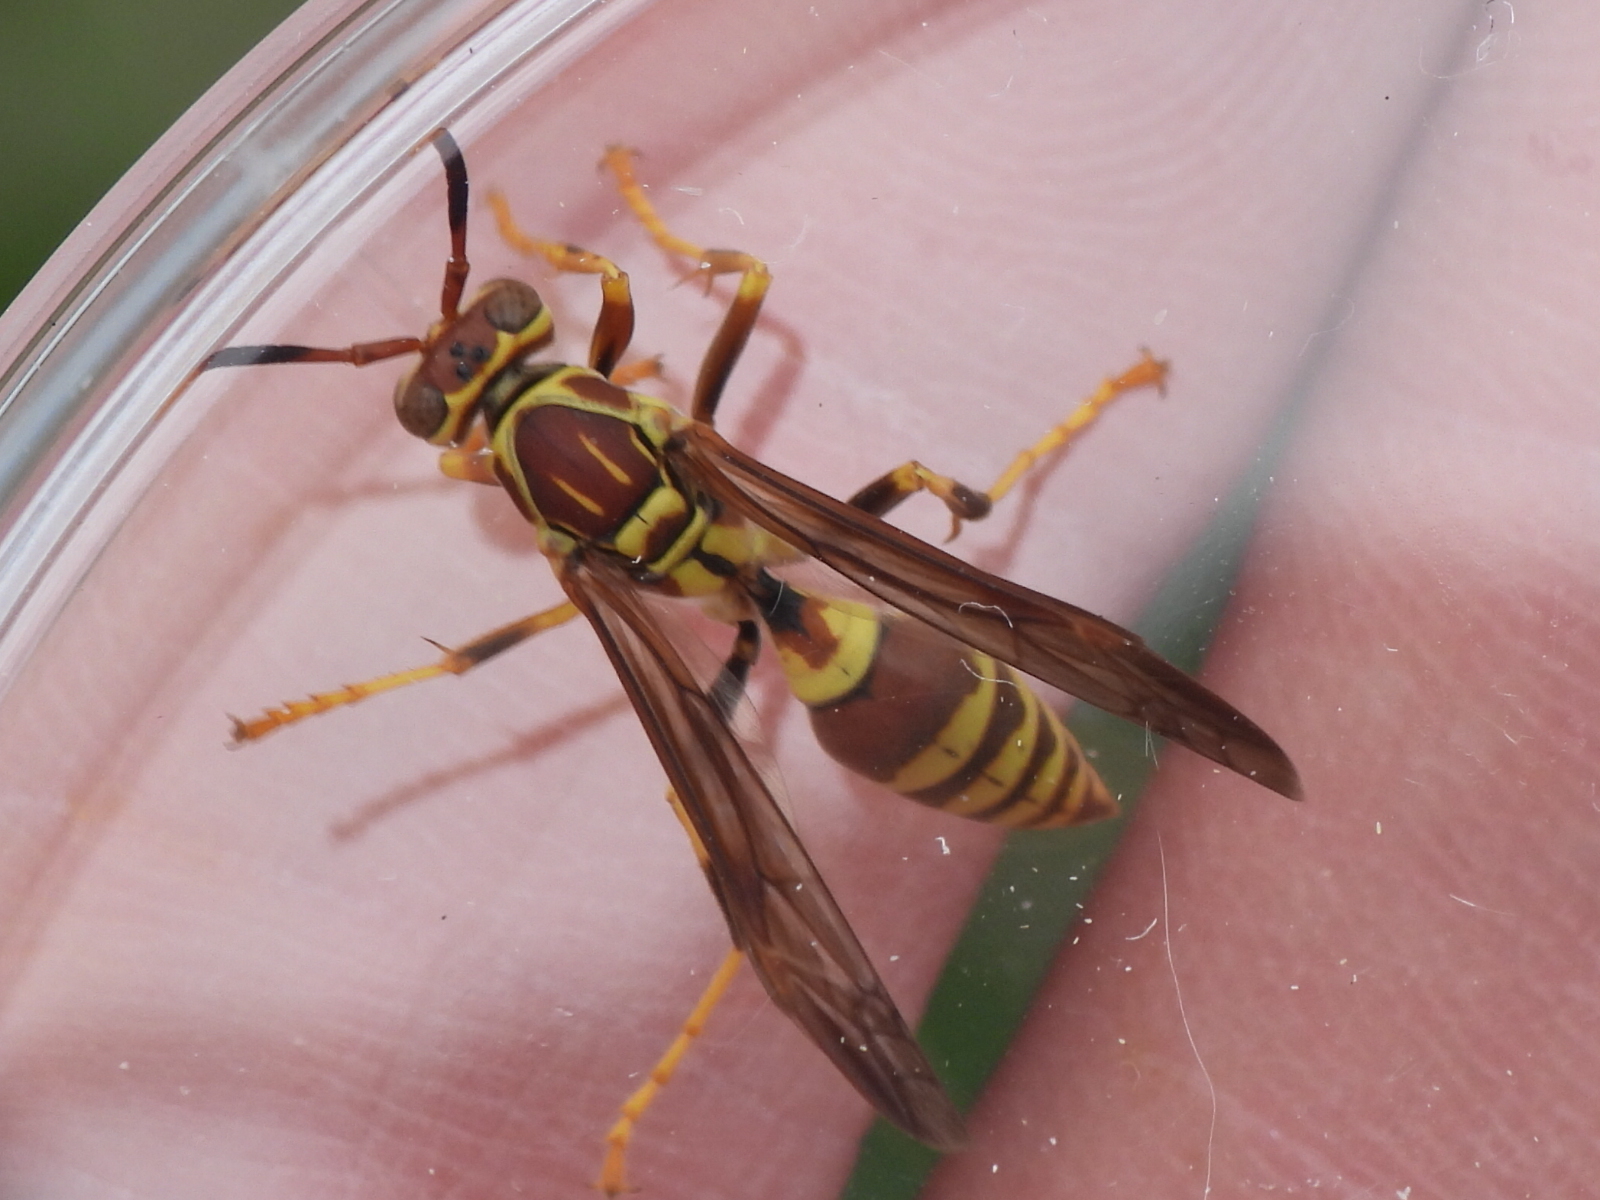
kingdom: Animalia
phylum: Arthropoda
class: Insecta
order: Hymenoptera
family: Eumenidae
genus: Polistes
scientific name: Polistes exclamans
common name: Paper wasp
